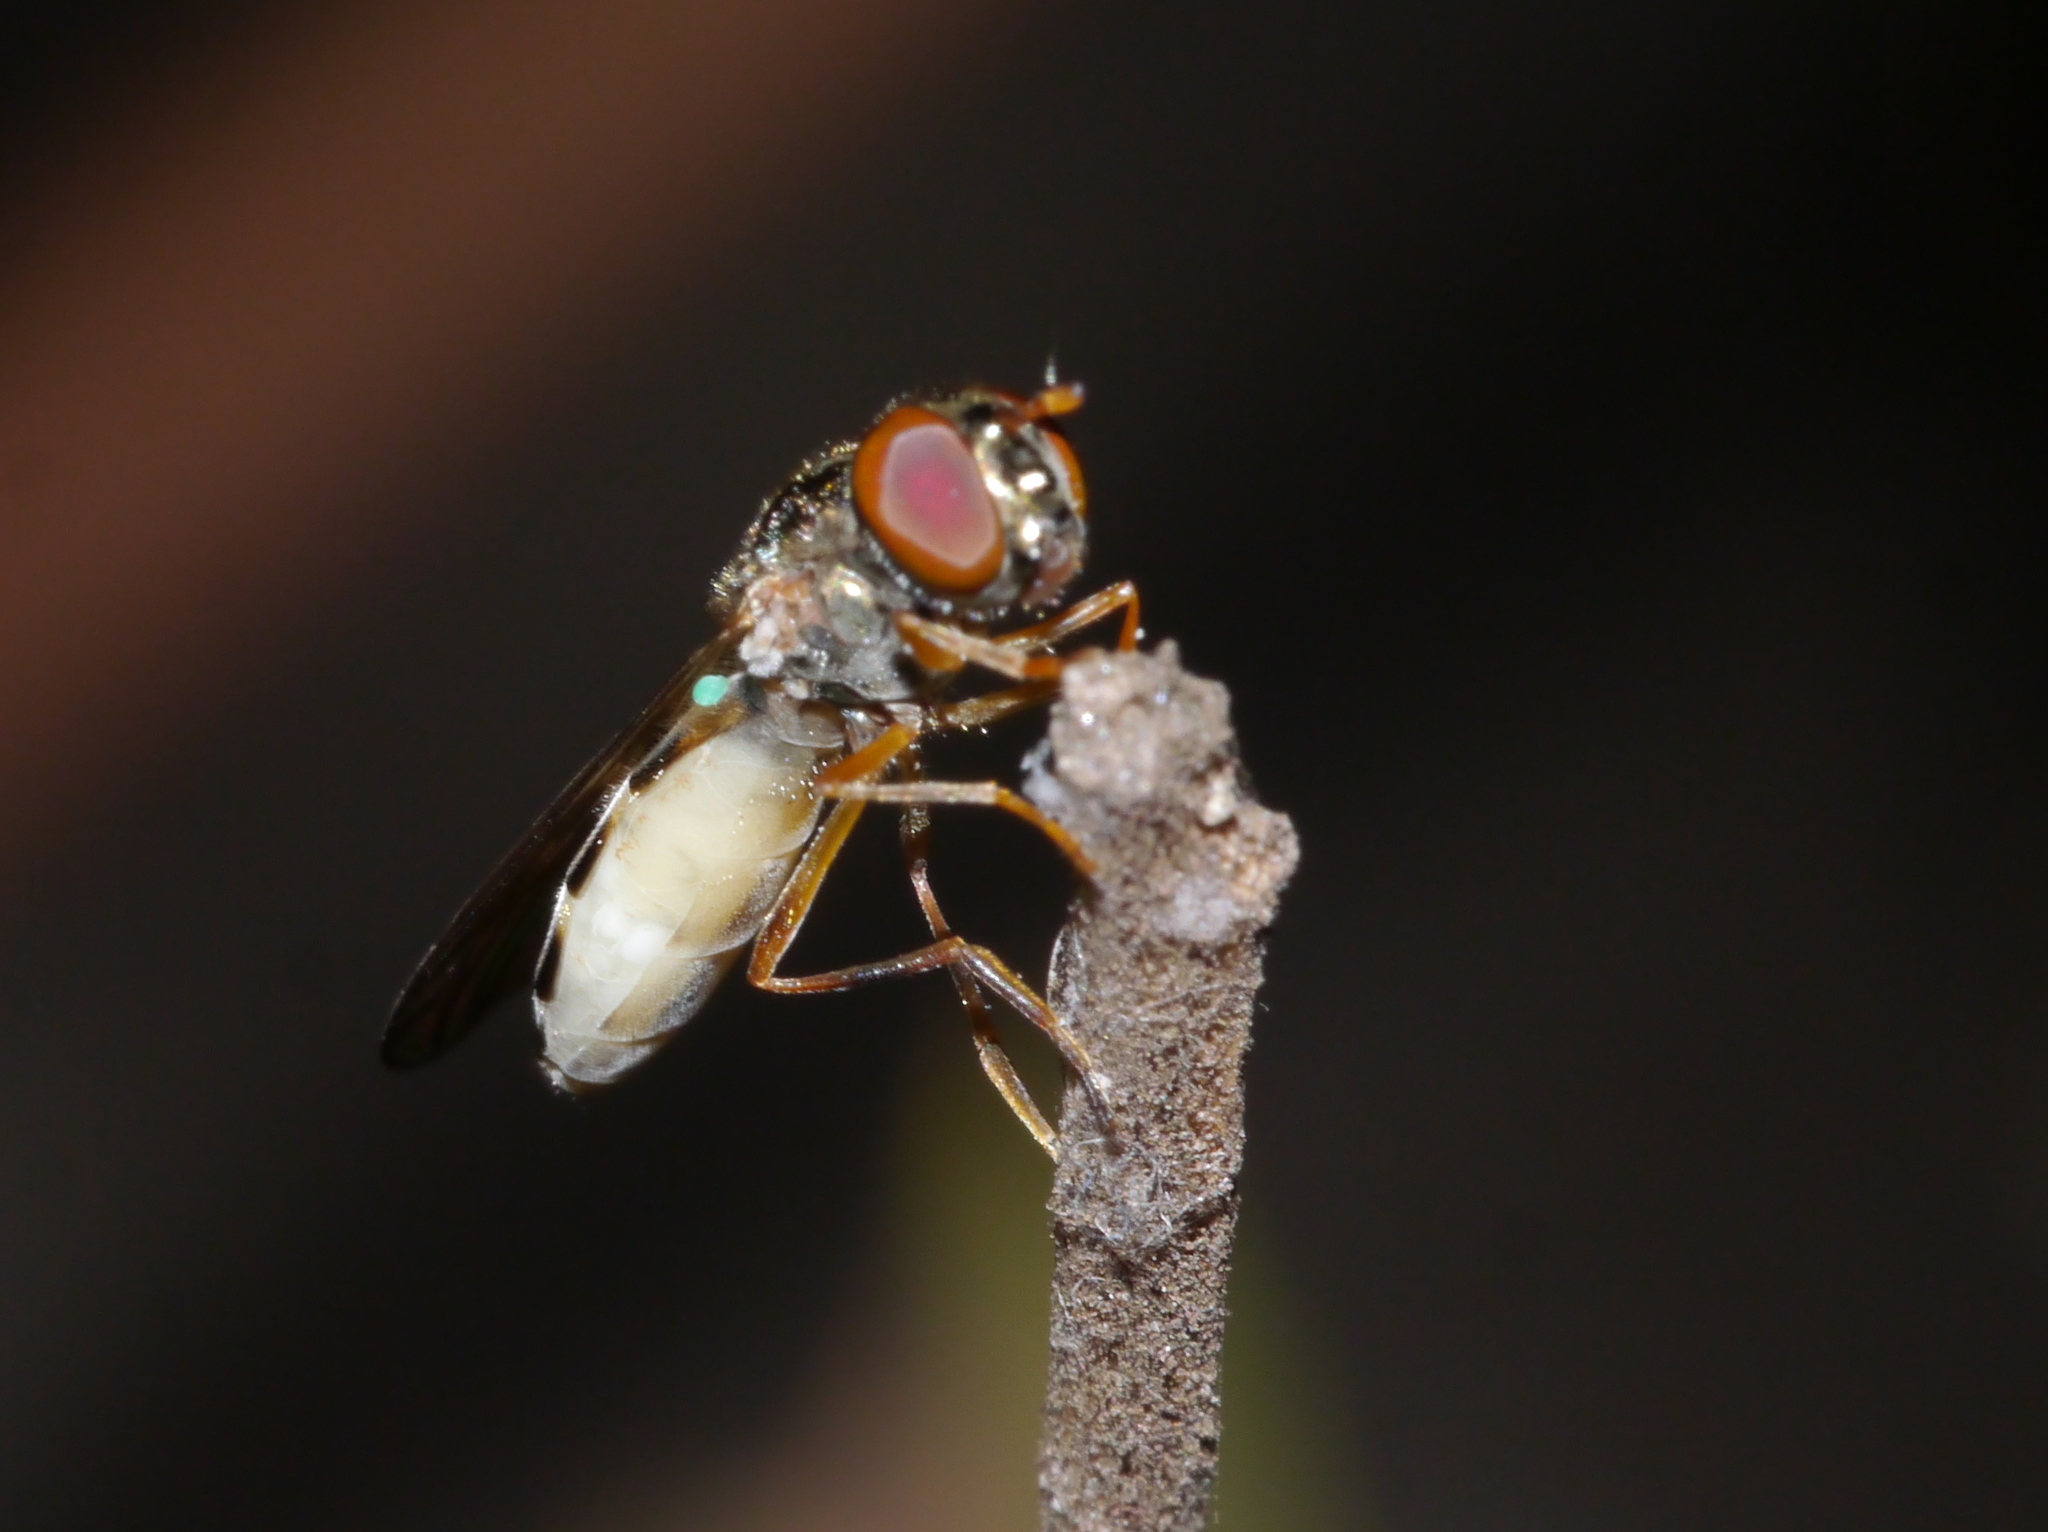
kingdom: Animalia
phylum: Arthropoda
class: Insecta
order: Diptera
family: Syrphidae
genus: Melanostoma
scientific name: Melanostoma mellina
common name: Hover fly
